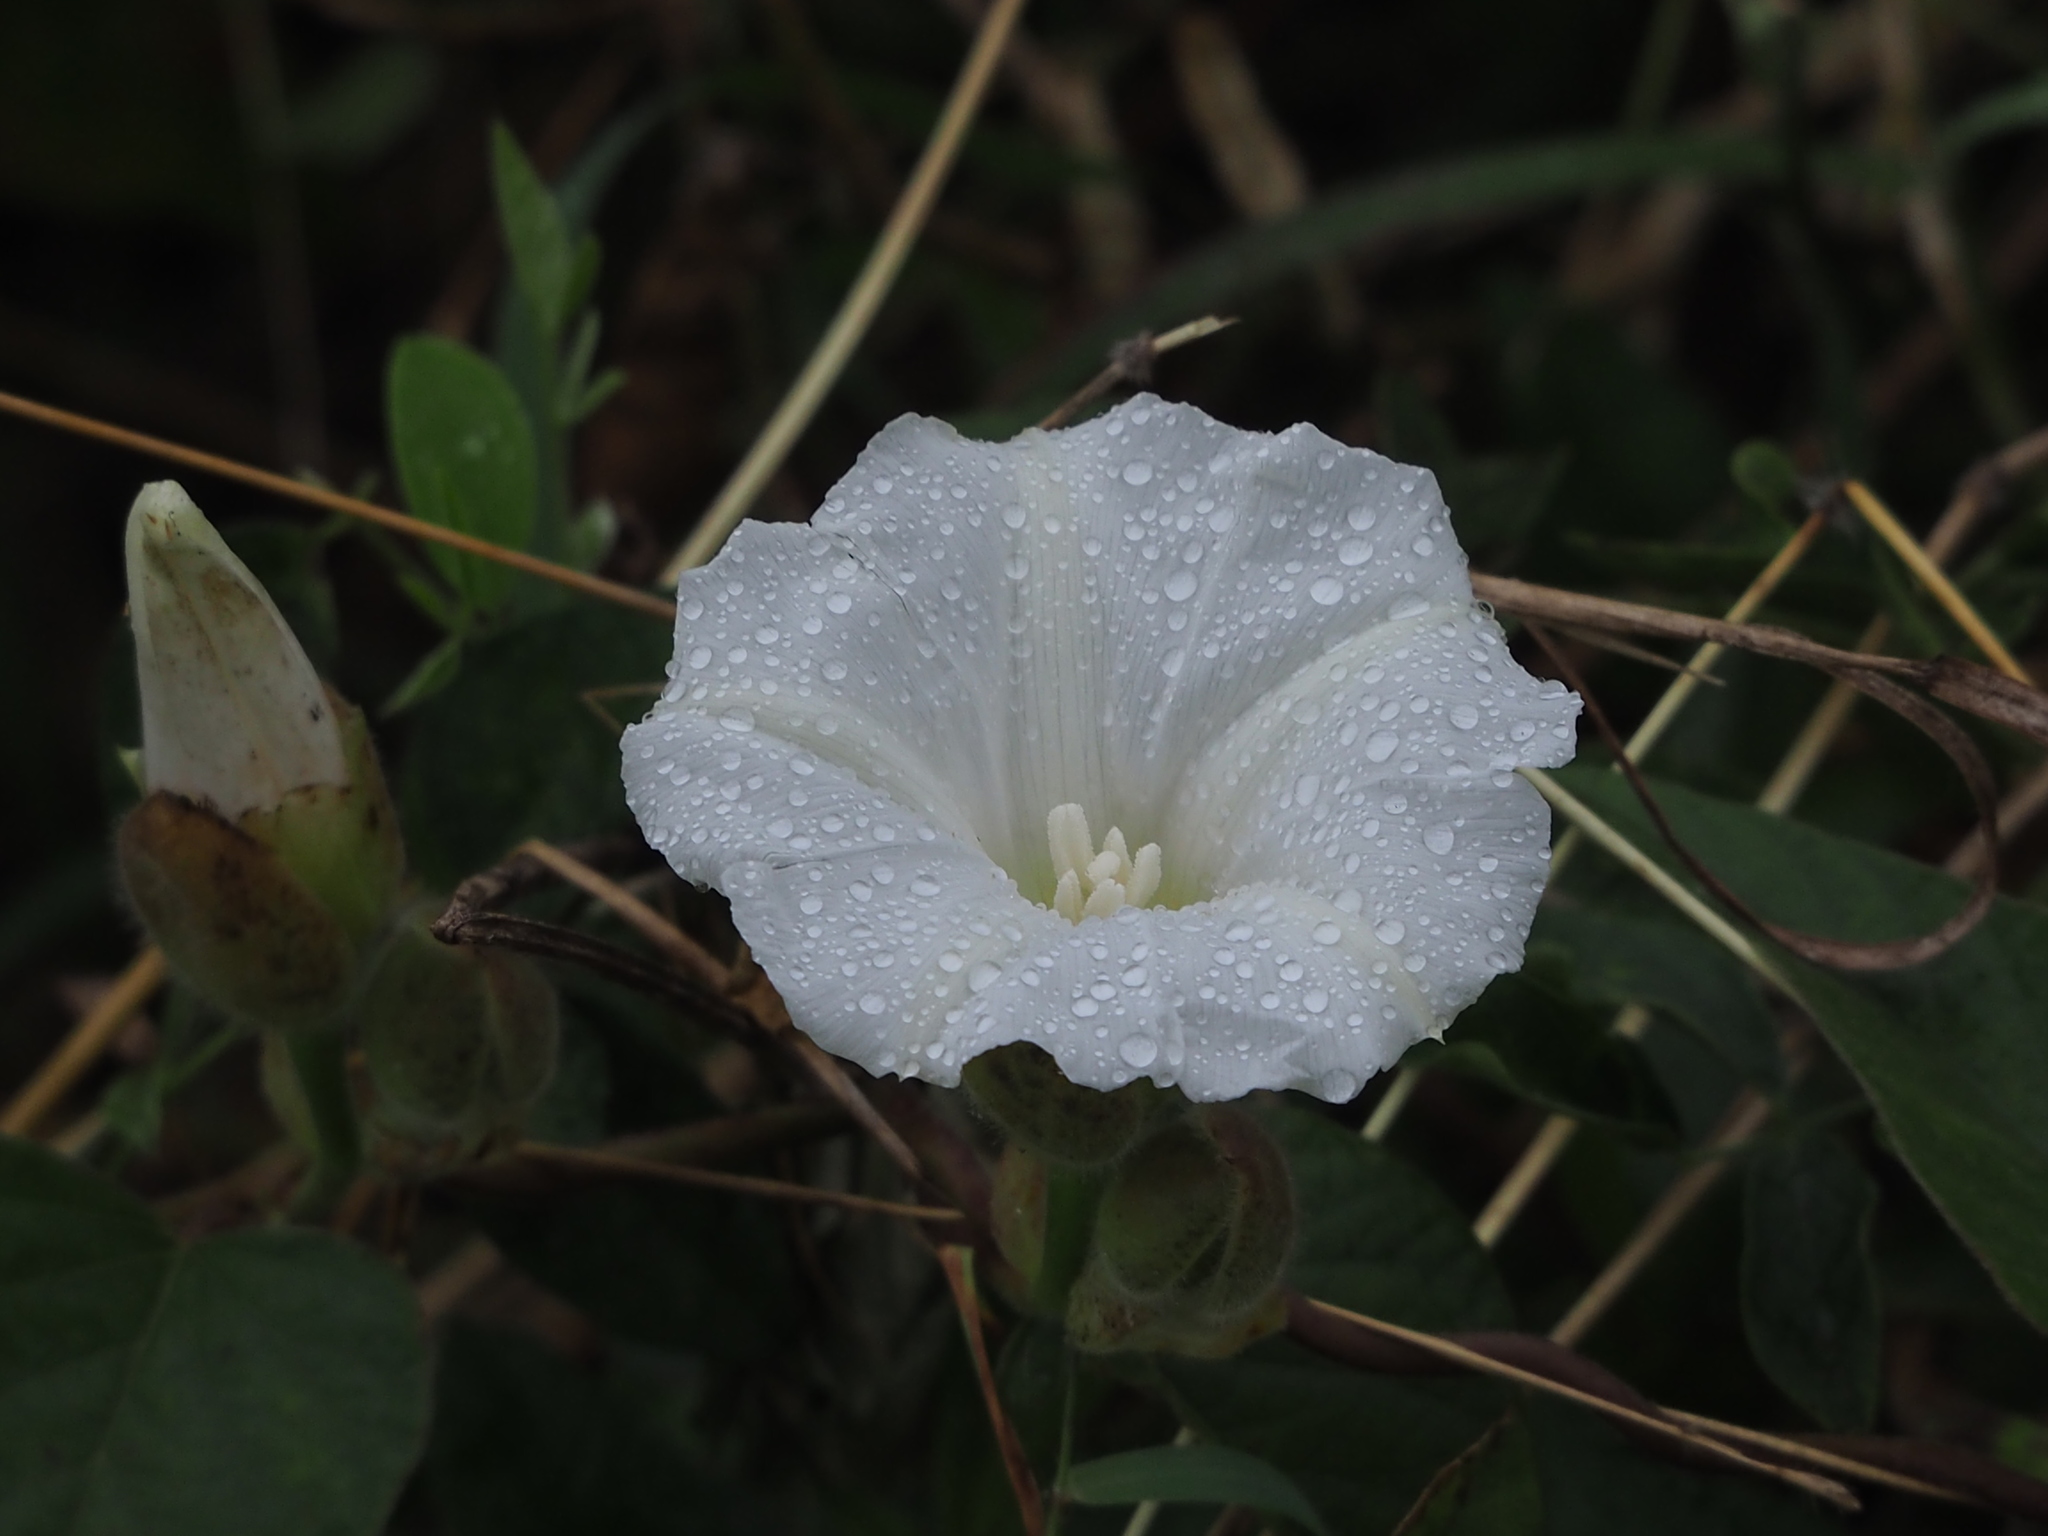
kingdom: Plantae
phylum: Tracheophyta
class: Magnoliopsida
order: Solanales
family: Convolvulaceae
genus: Operculina
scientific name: Operculina turpethum
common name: Transparent wood-rose
